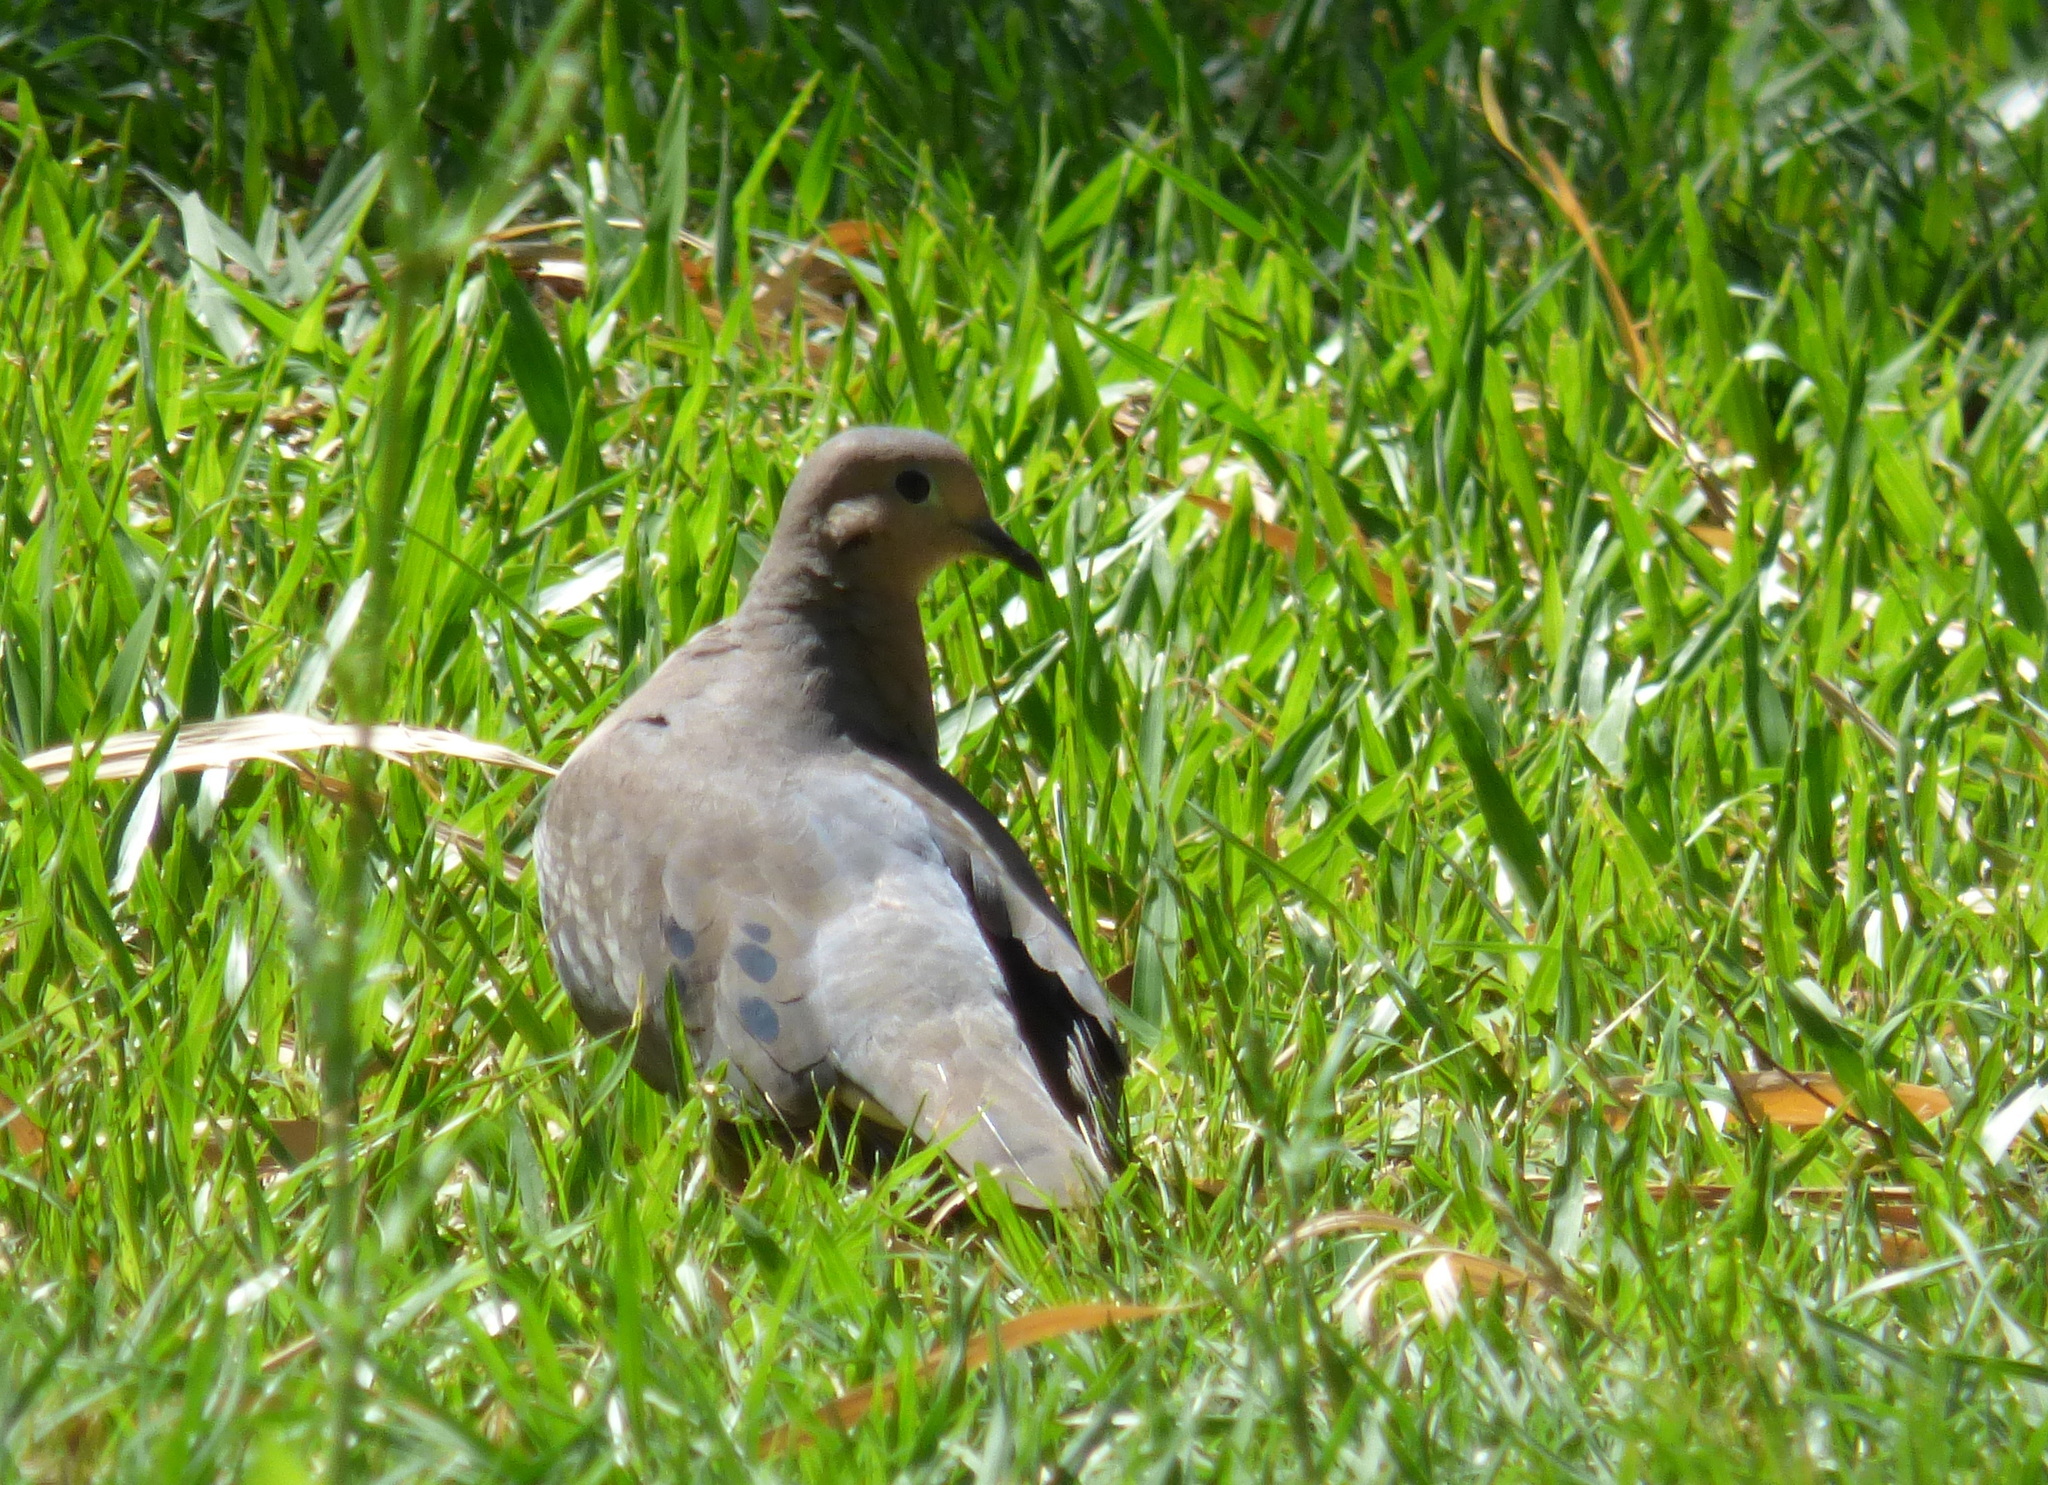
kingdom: Animalia
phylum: Chordata
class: Aves
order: Columbiformes
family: Columbidae
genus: Zenaida
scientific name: Zenaida auriculata
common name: Eared dove
